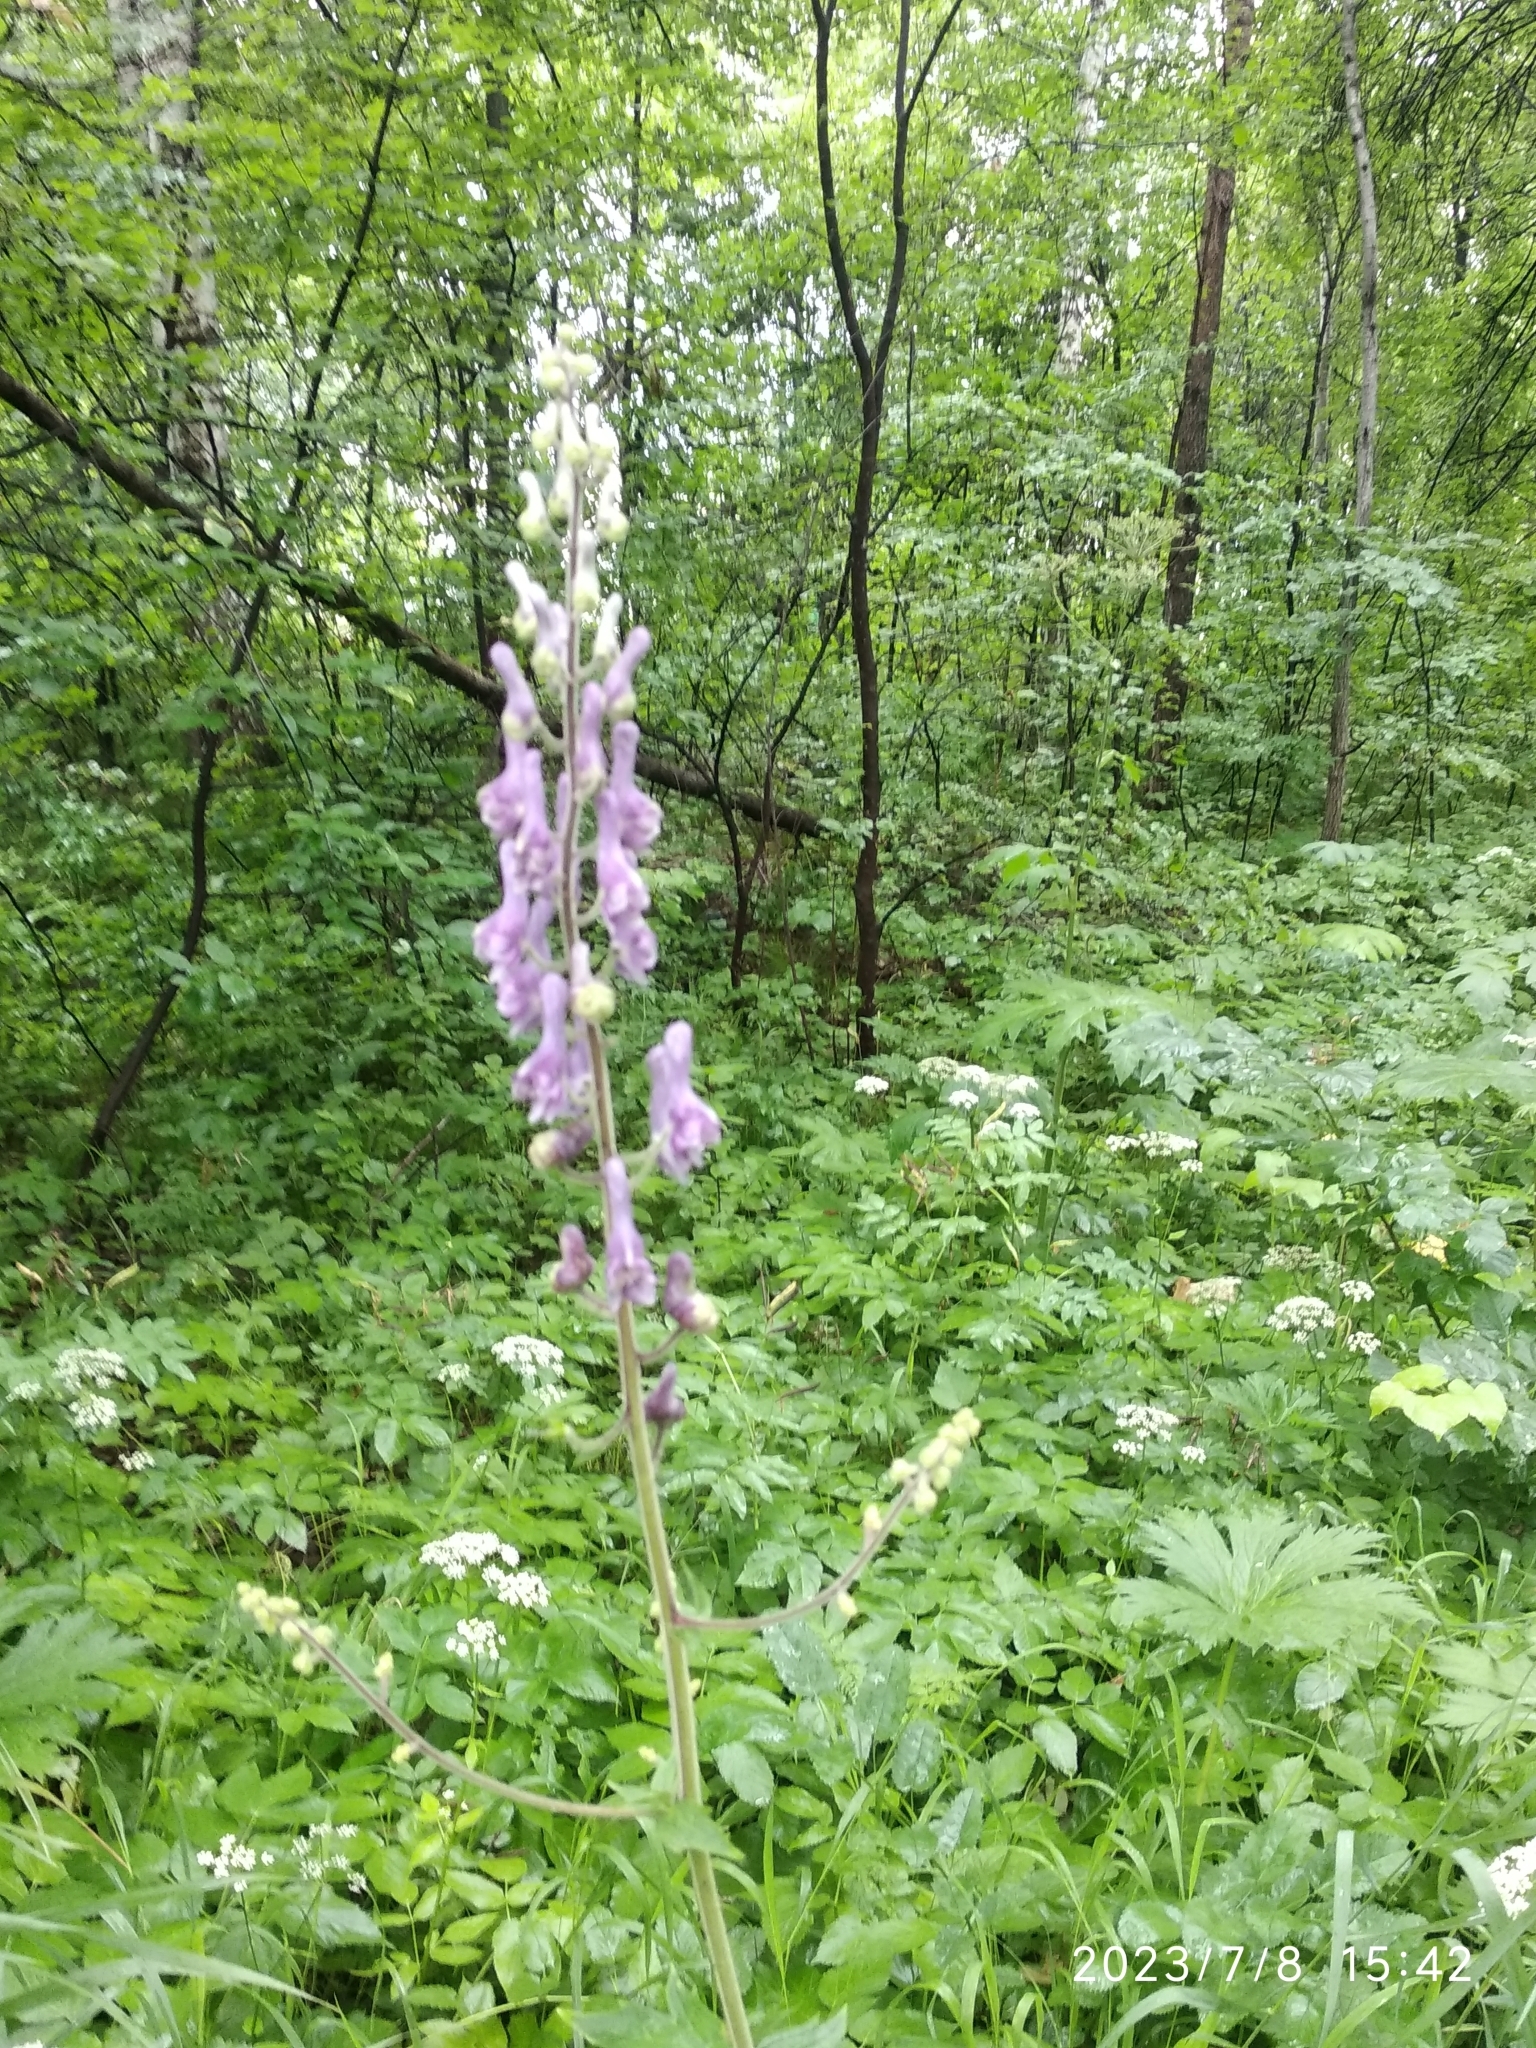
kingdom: Plantae
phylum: Tracheophyta
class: Magnoliopsida
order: Ranunculales
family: Ranunculaceae
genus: Aconitum
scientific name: Aconitum septentrionale
